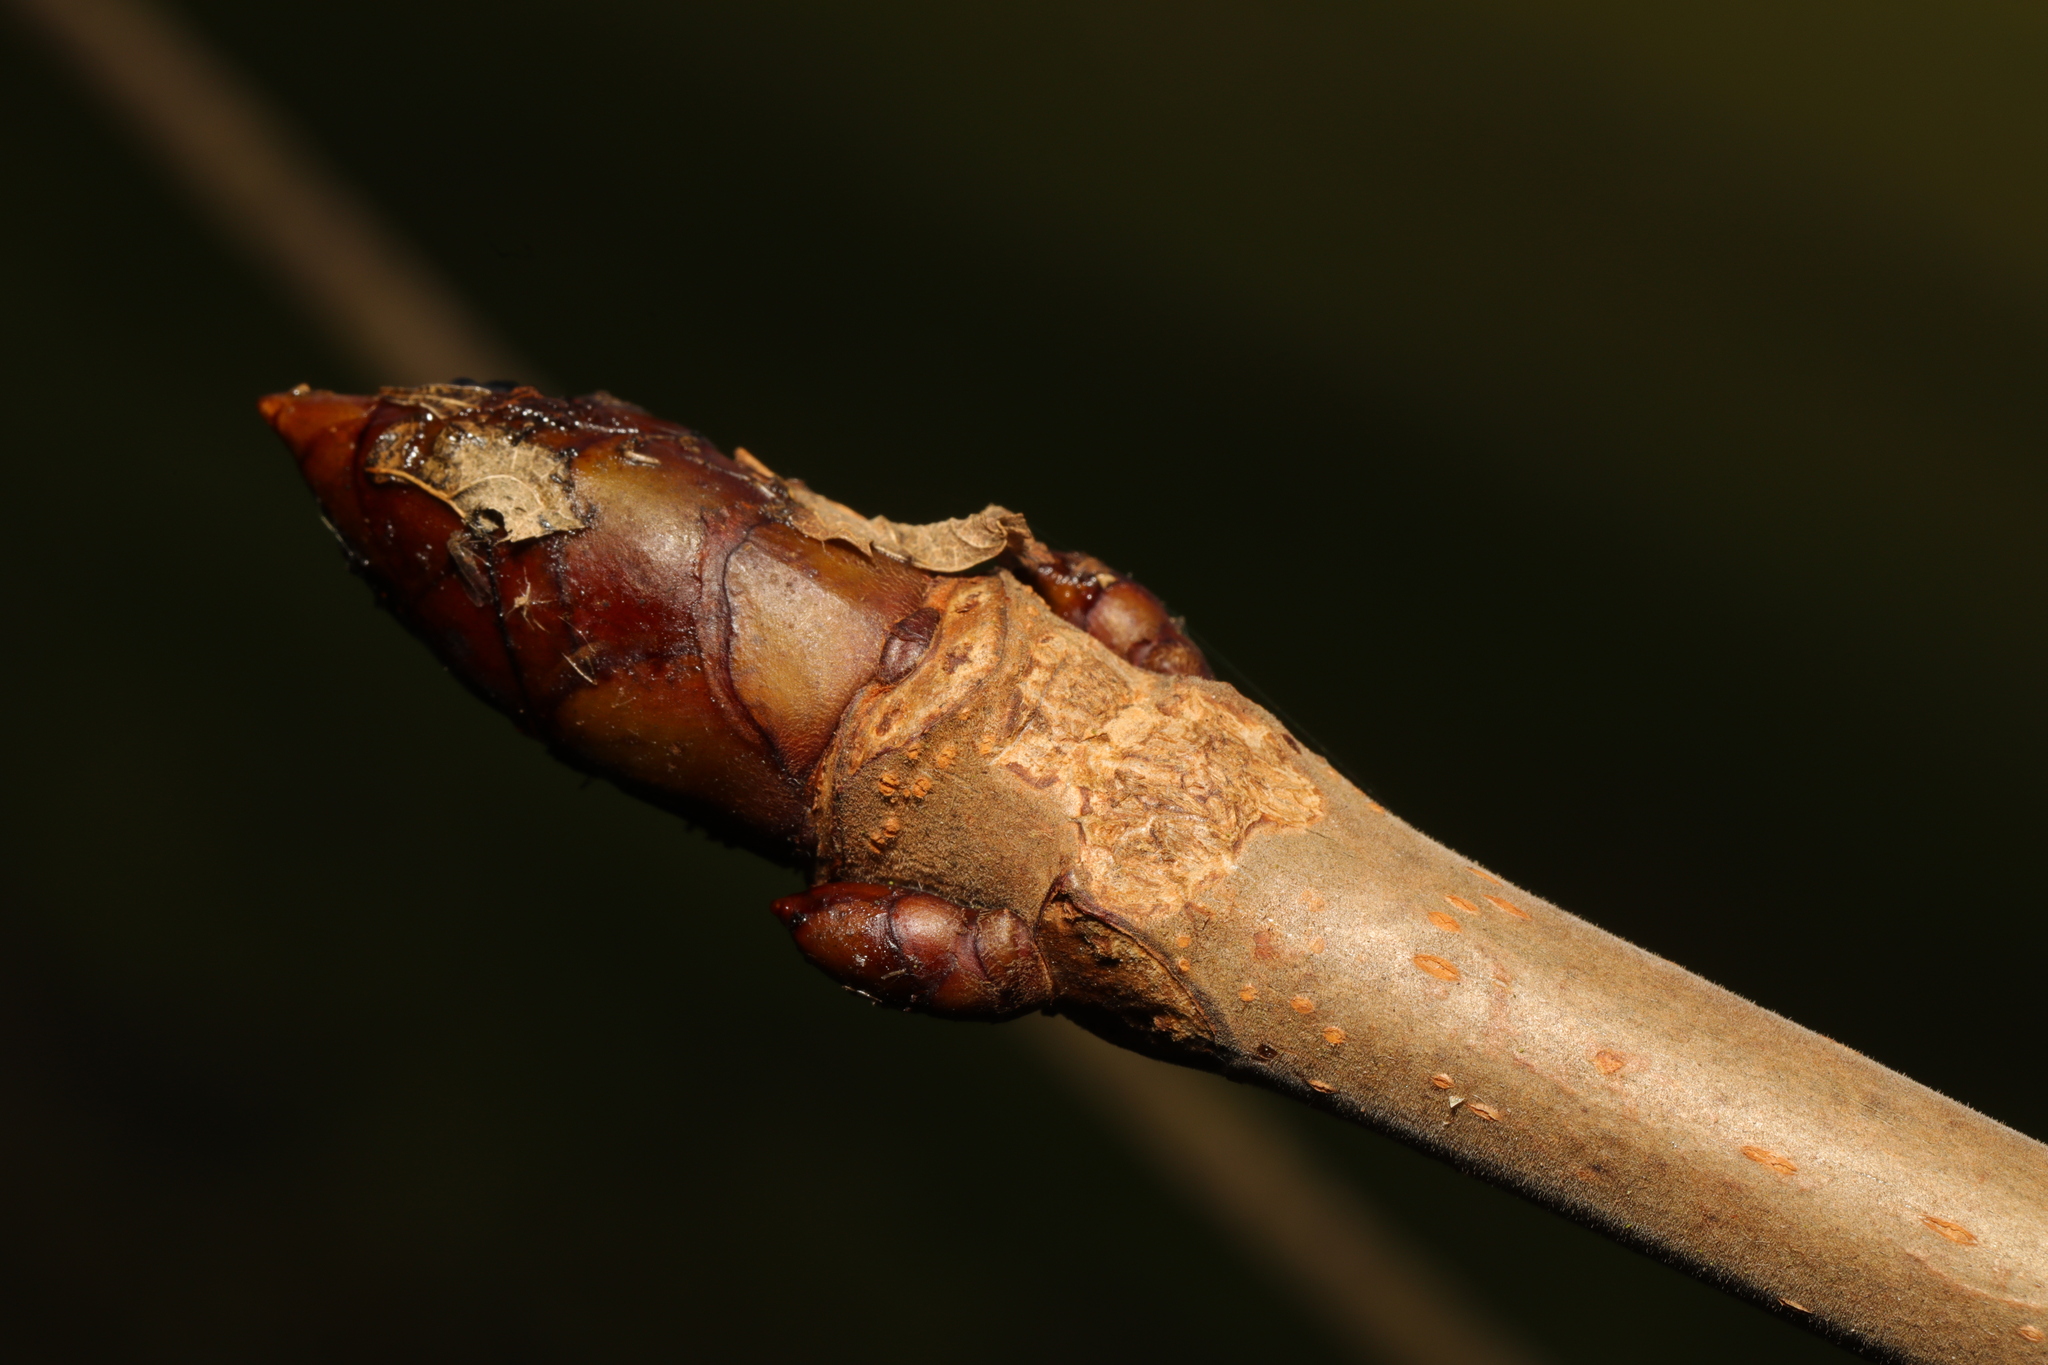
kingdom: Plantae
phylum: Tracheophyta
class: Magnoliopsida
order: Sapindales
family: Sapindaceae
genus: Aesculus
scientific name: Aesculus hippocastanum
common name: Horse-chestnut
